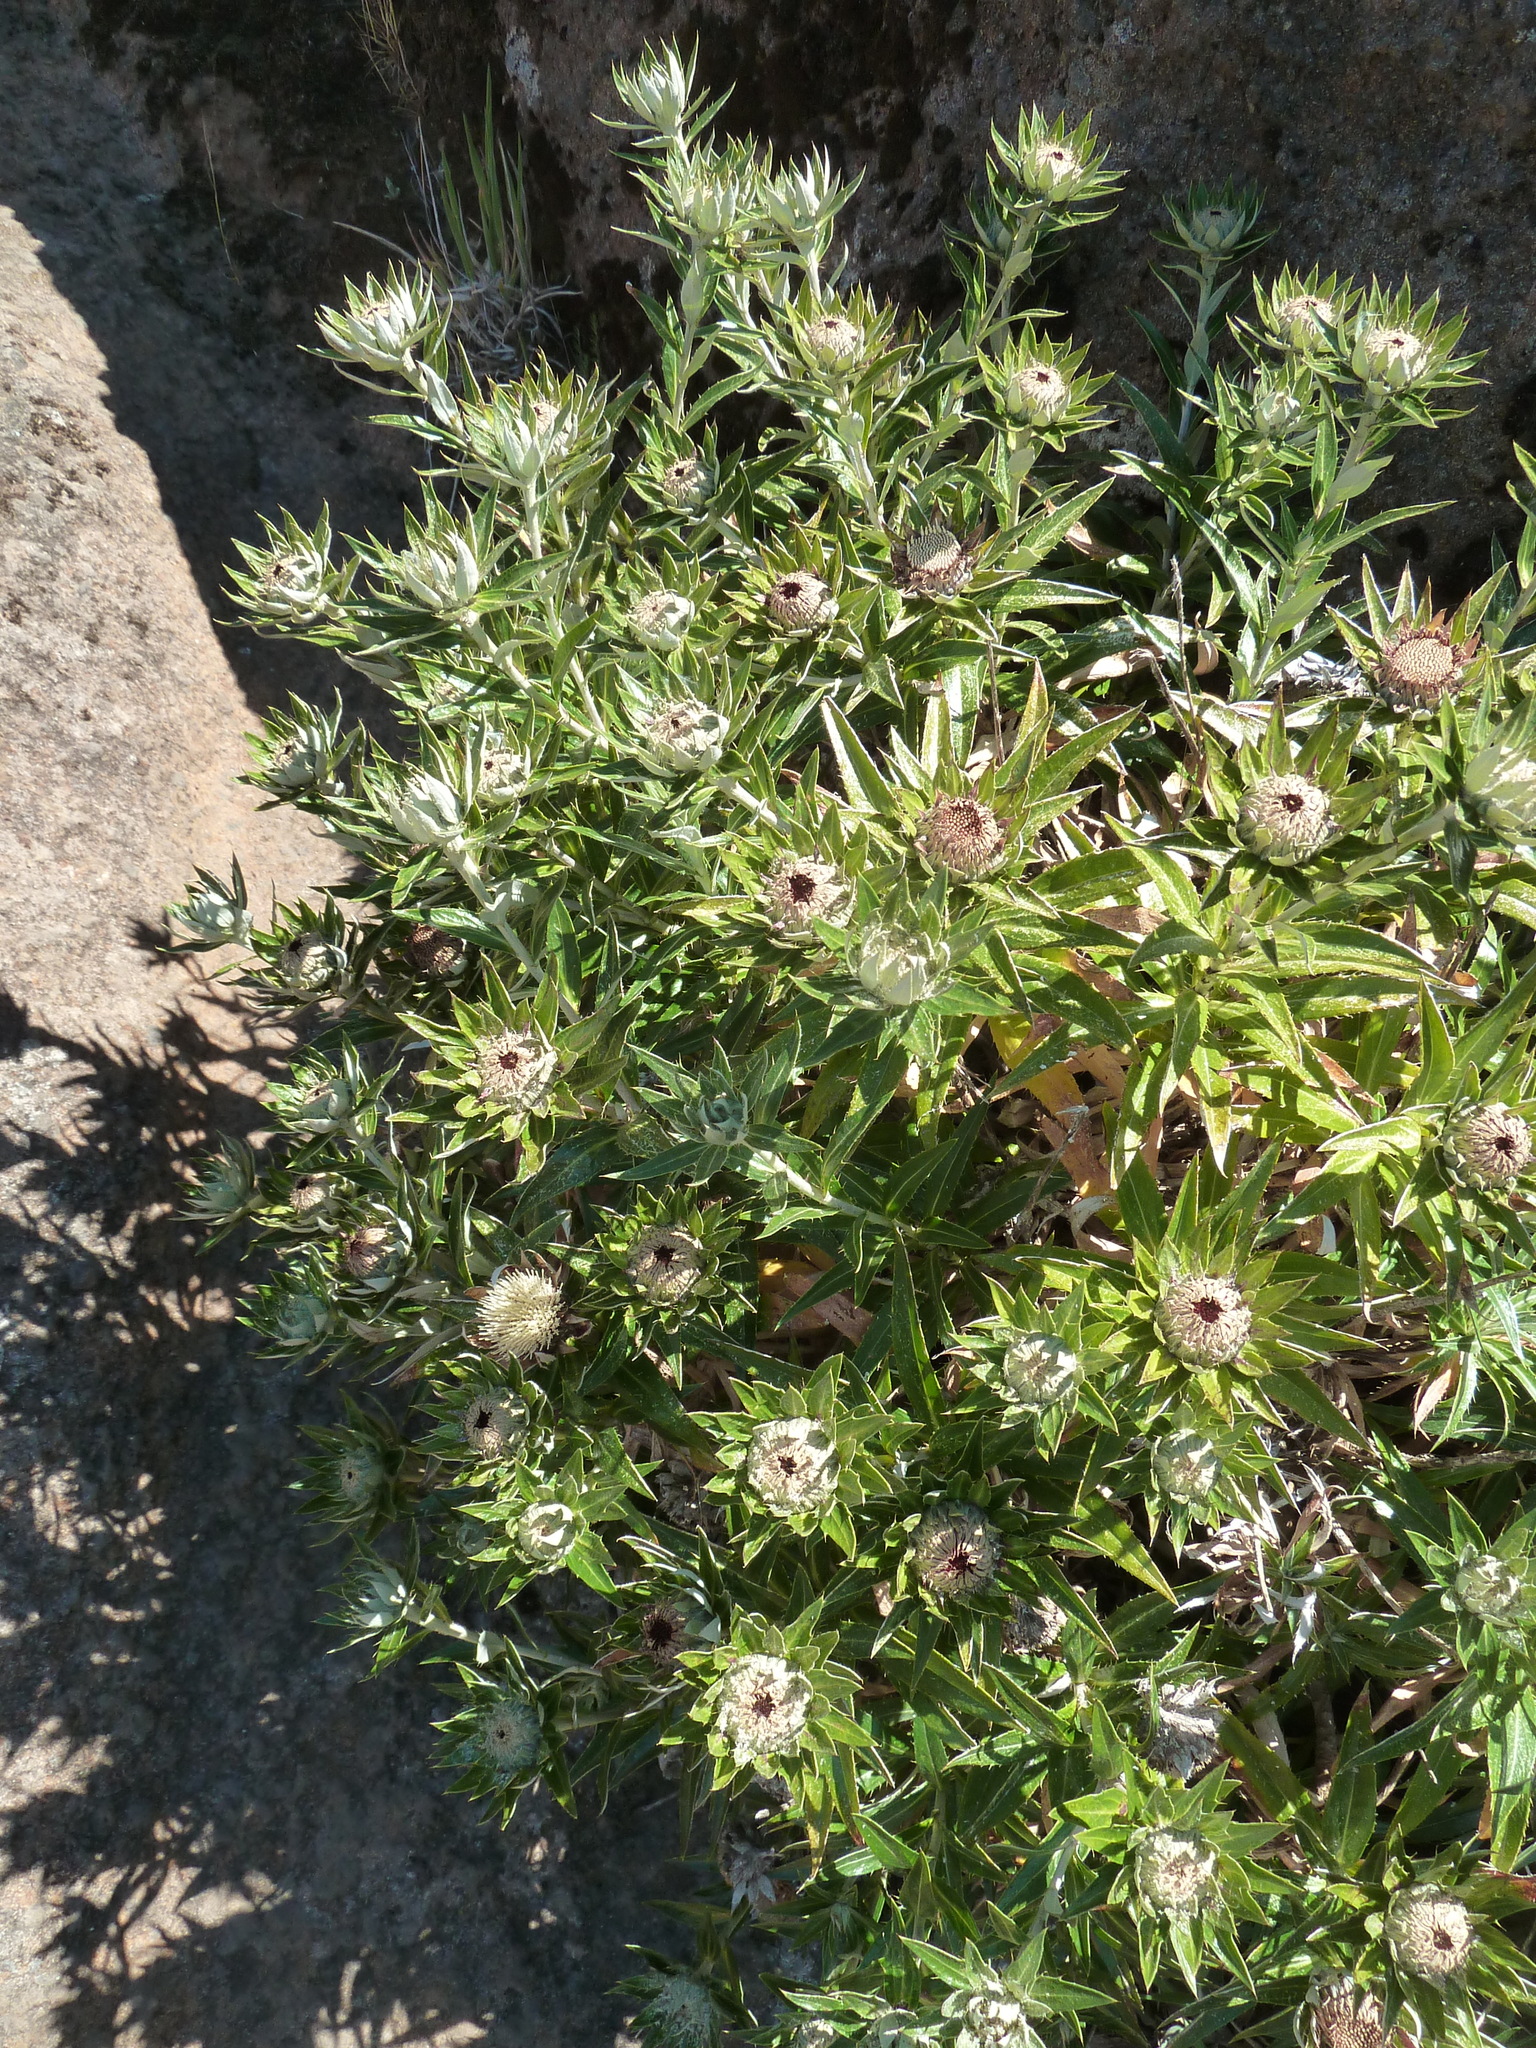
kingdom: Plantae
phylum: Tracheophyta
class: Magnoliopsida
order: Asterales
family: Asteraceae
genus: Carlina
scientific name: Carlina salicifolia
